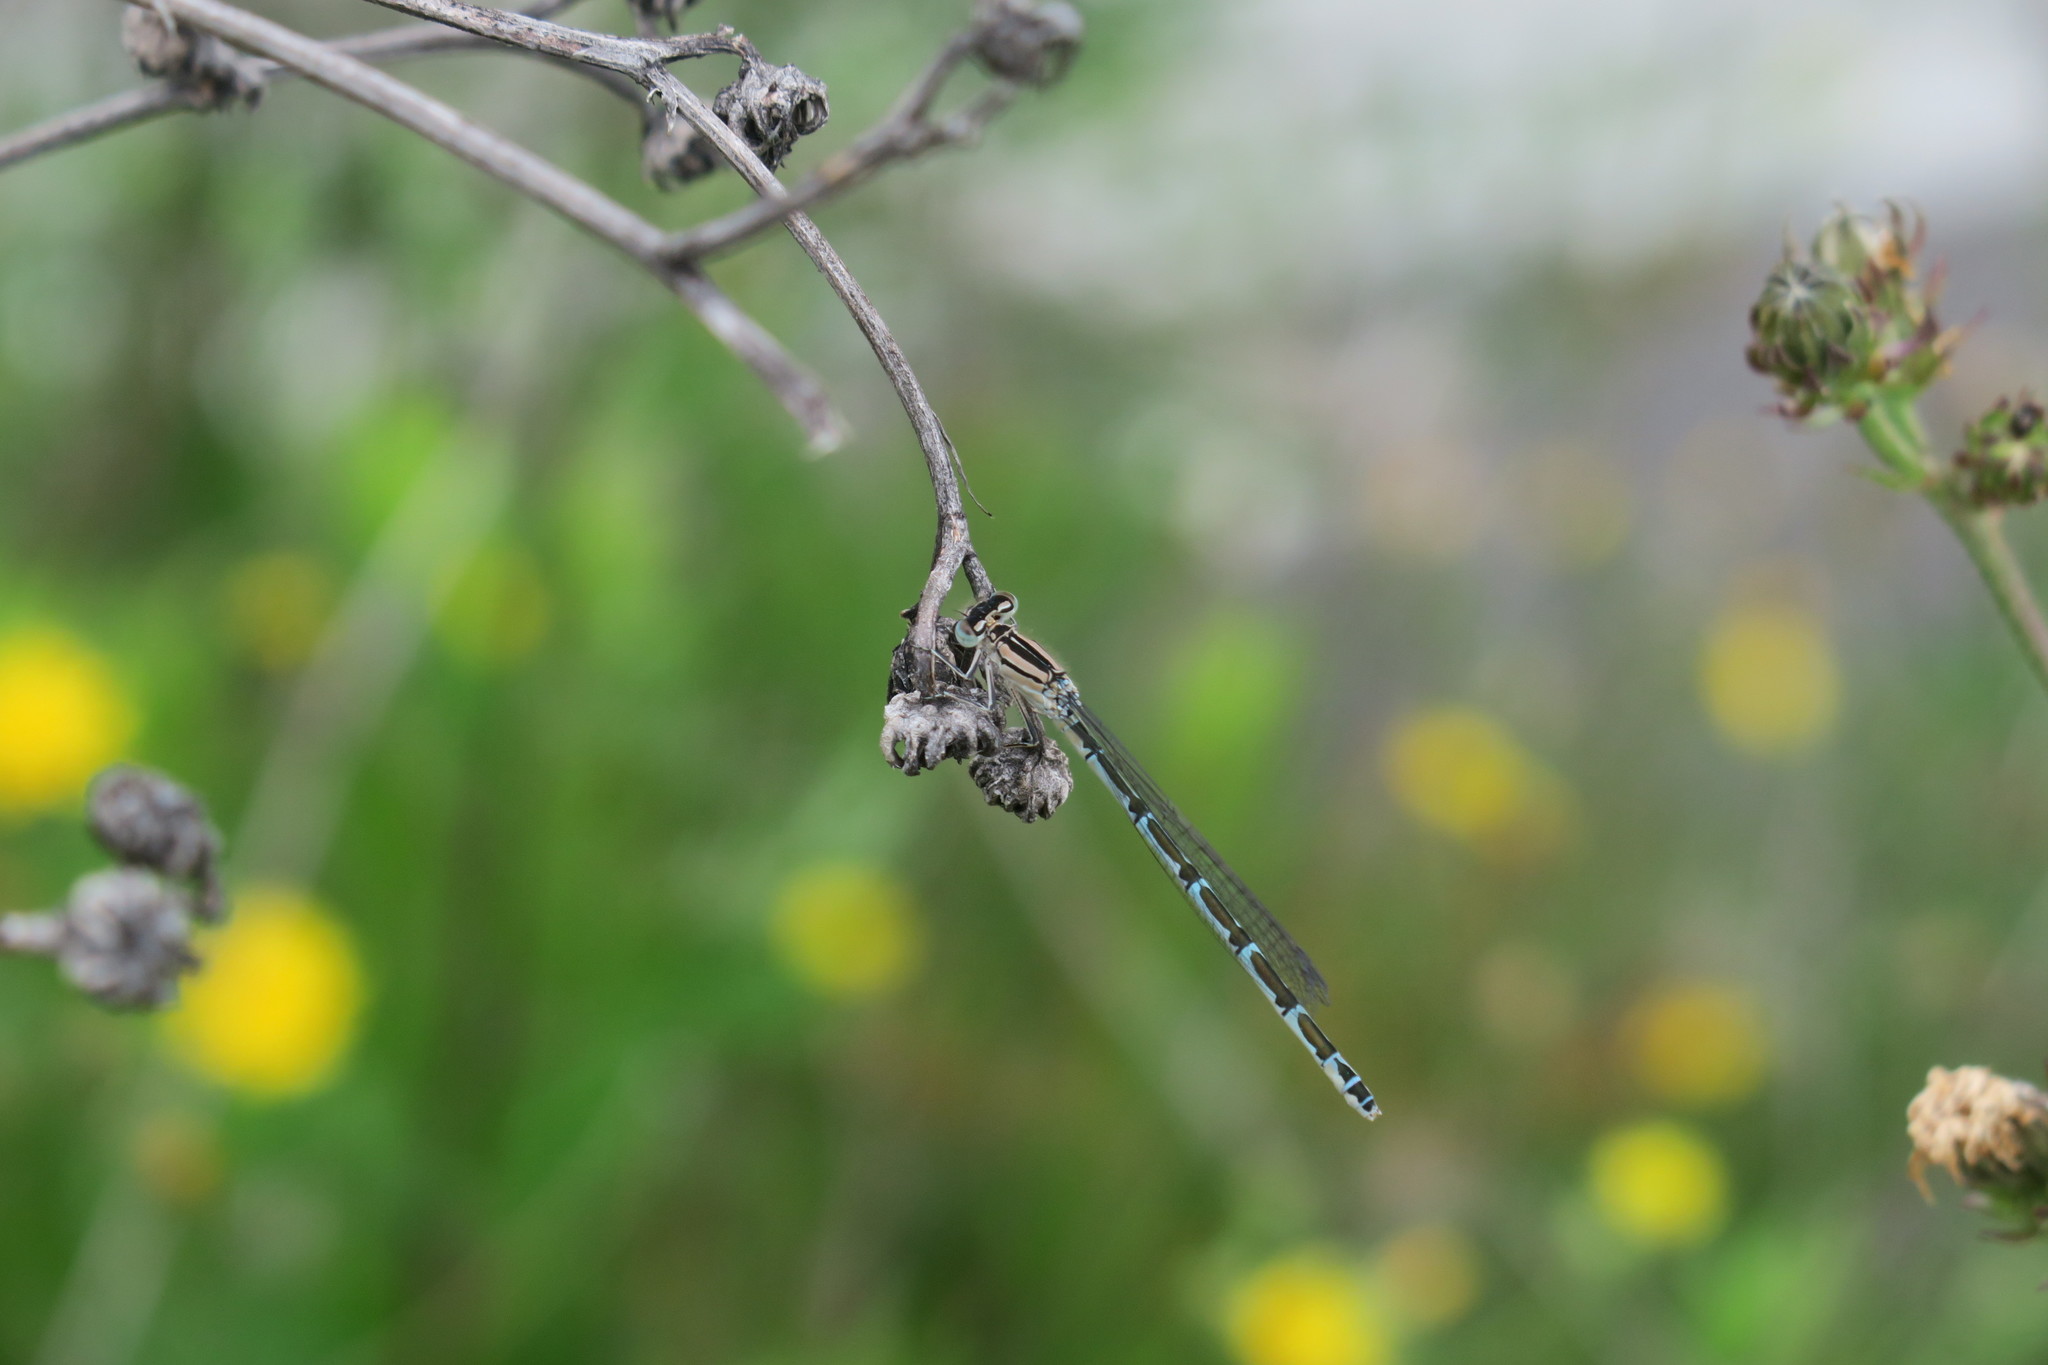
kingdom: Animalia
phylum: Arthropoda
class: Insecta
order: Odonata
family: Coenagrionidae
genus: Enallagma
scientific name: Enallagma cyathigerum
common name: Common blue damselfly
